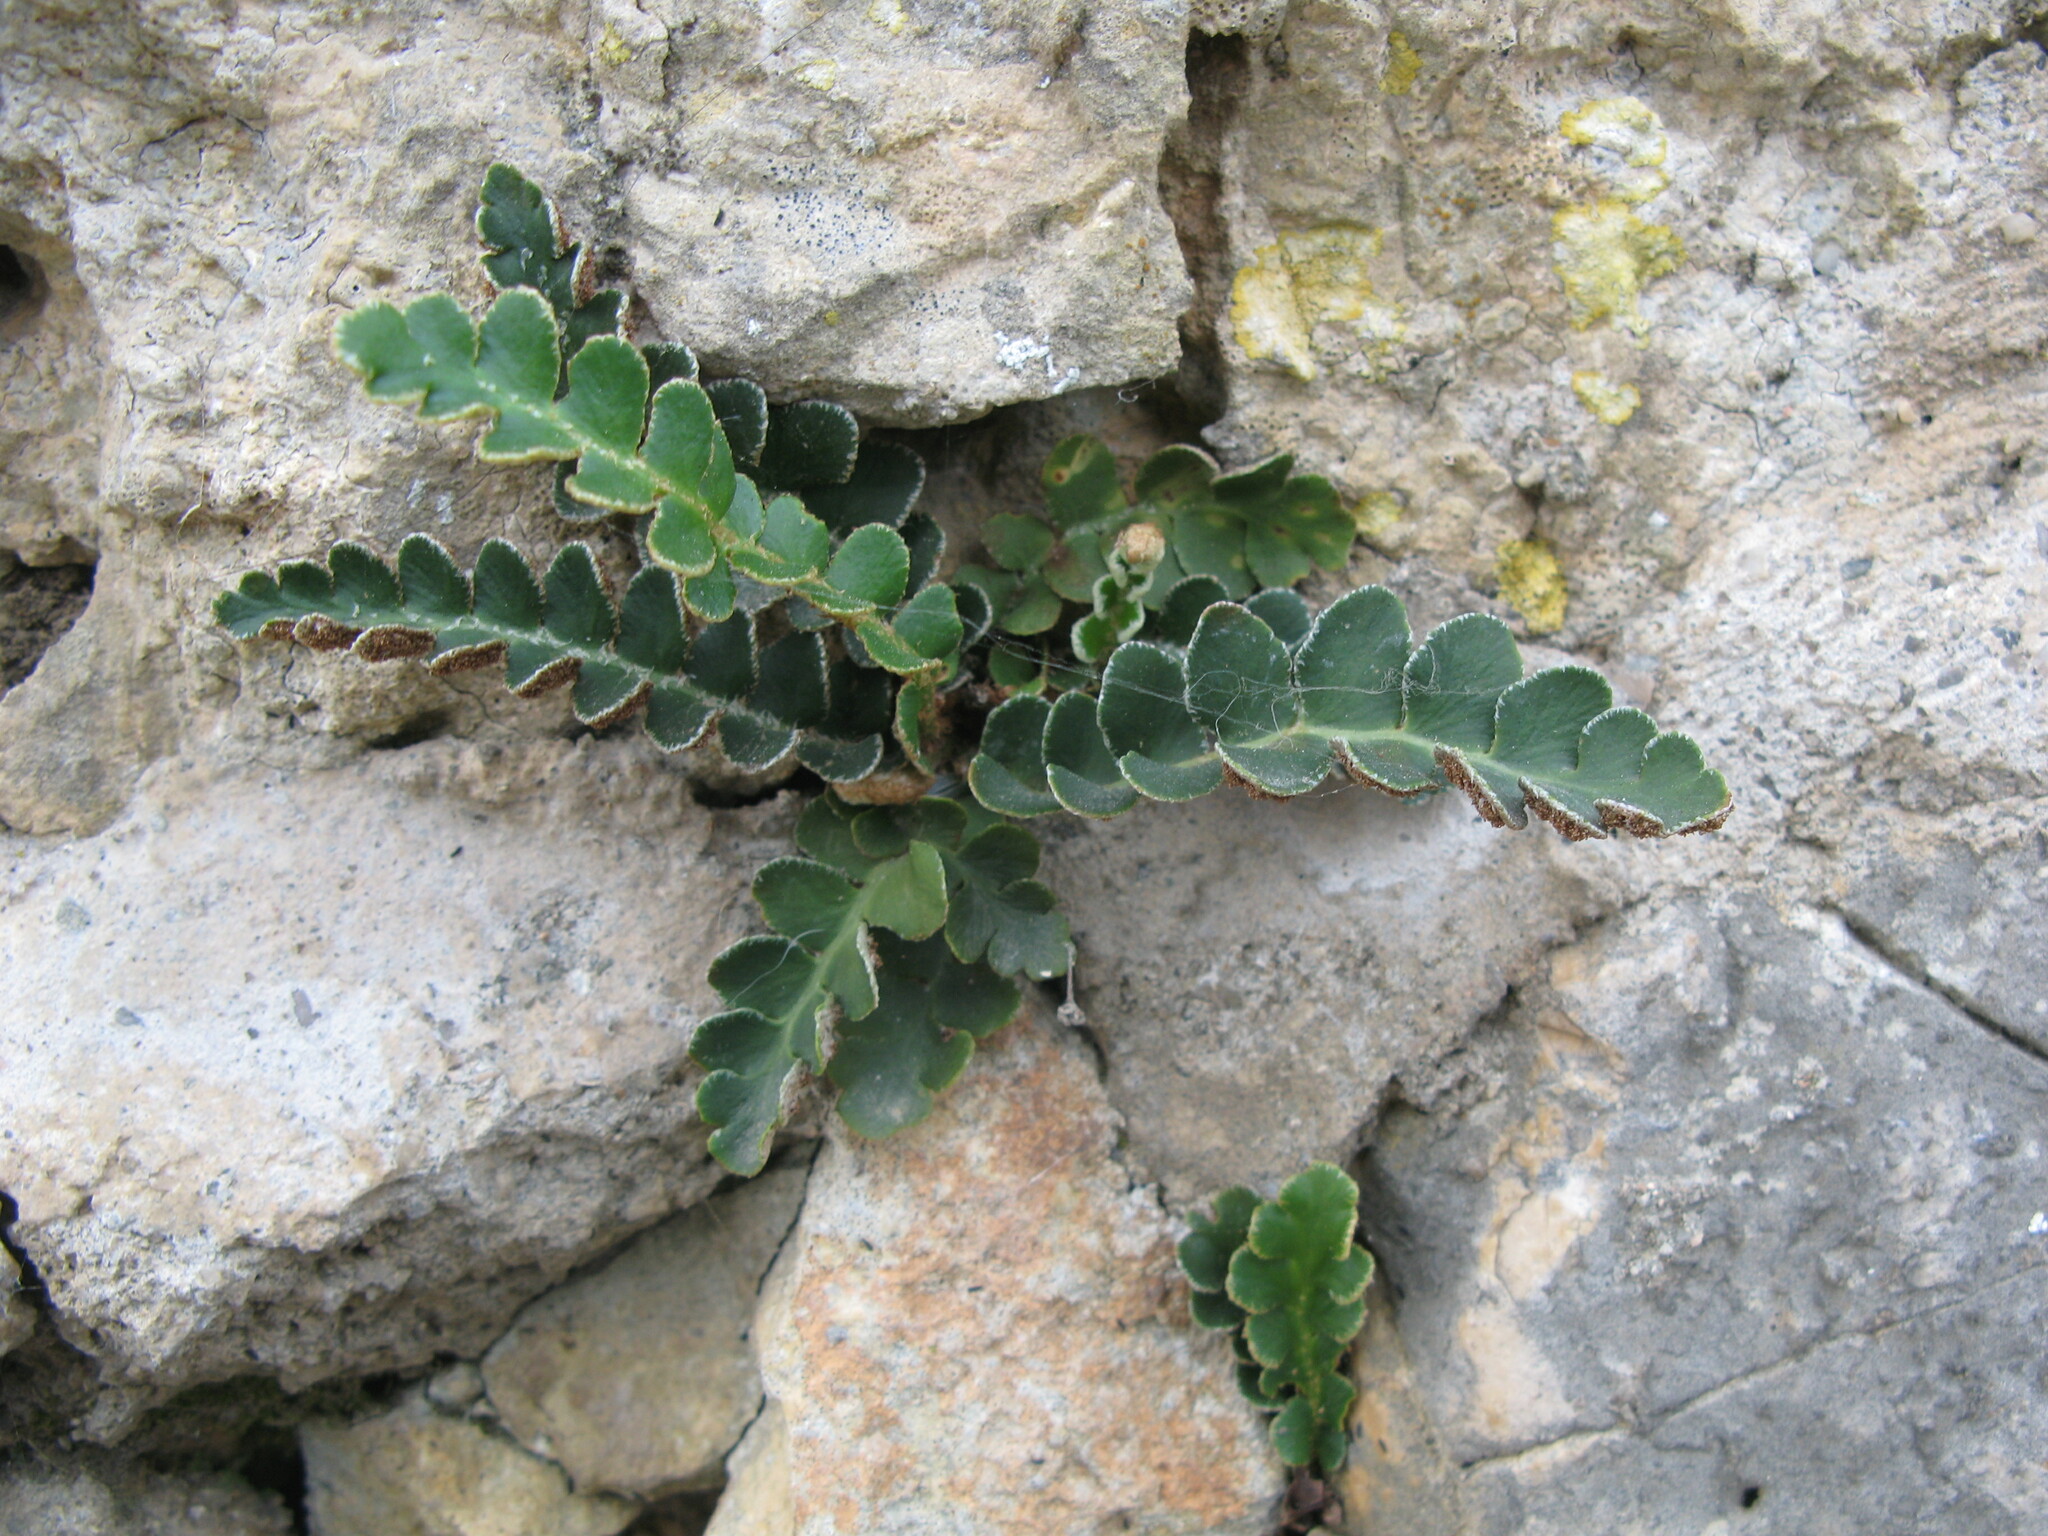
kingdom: Plantae
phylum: Tracheophyta
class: Polypodiopsida
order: Polypodiales
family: Aspleniaceae
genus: Asplenium
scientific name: Asplenium ceterach
